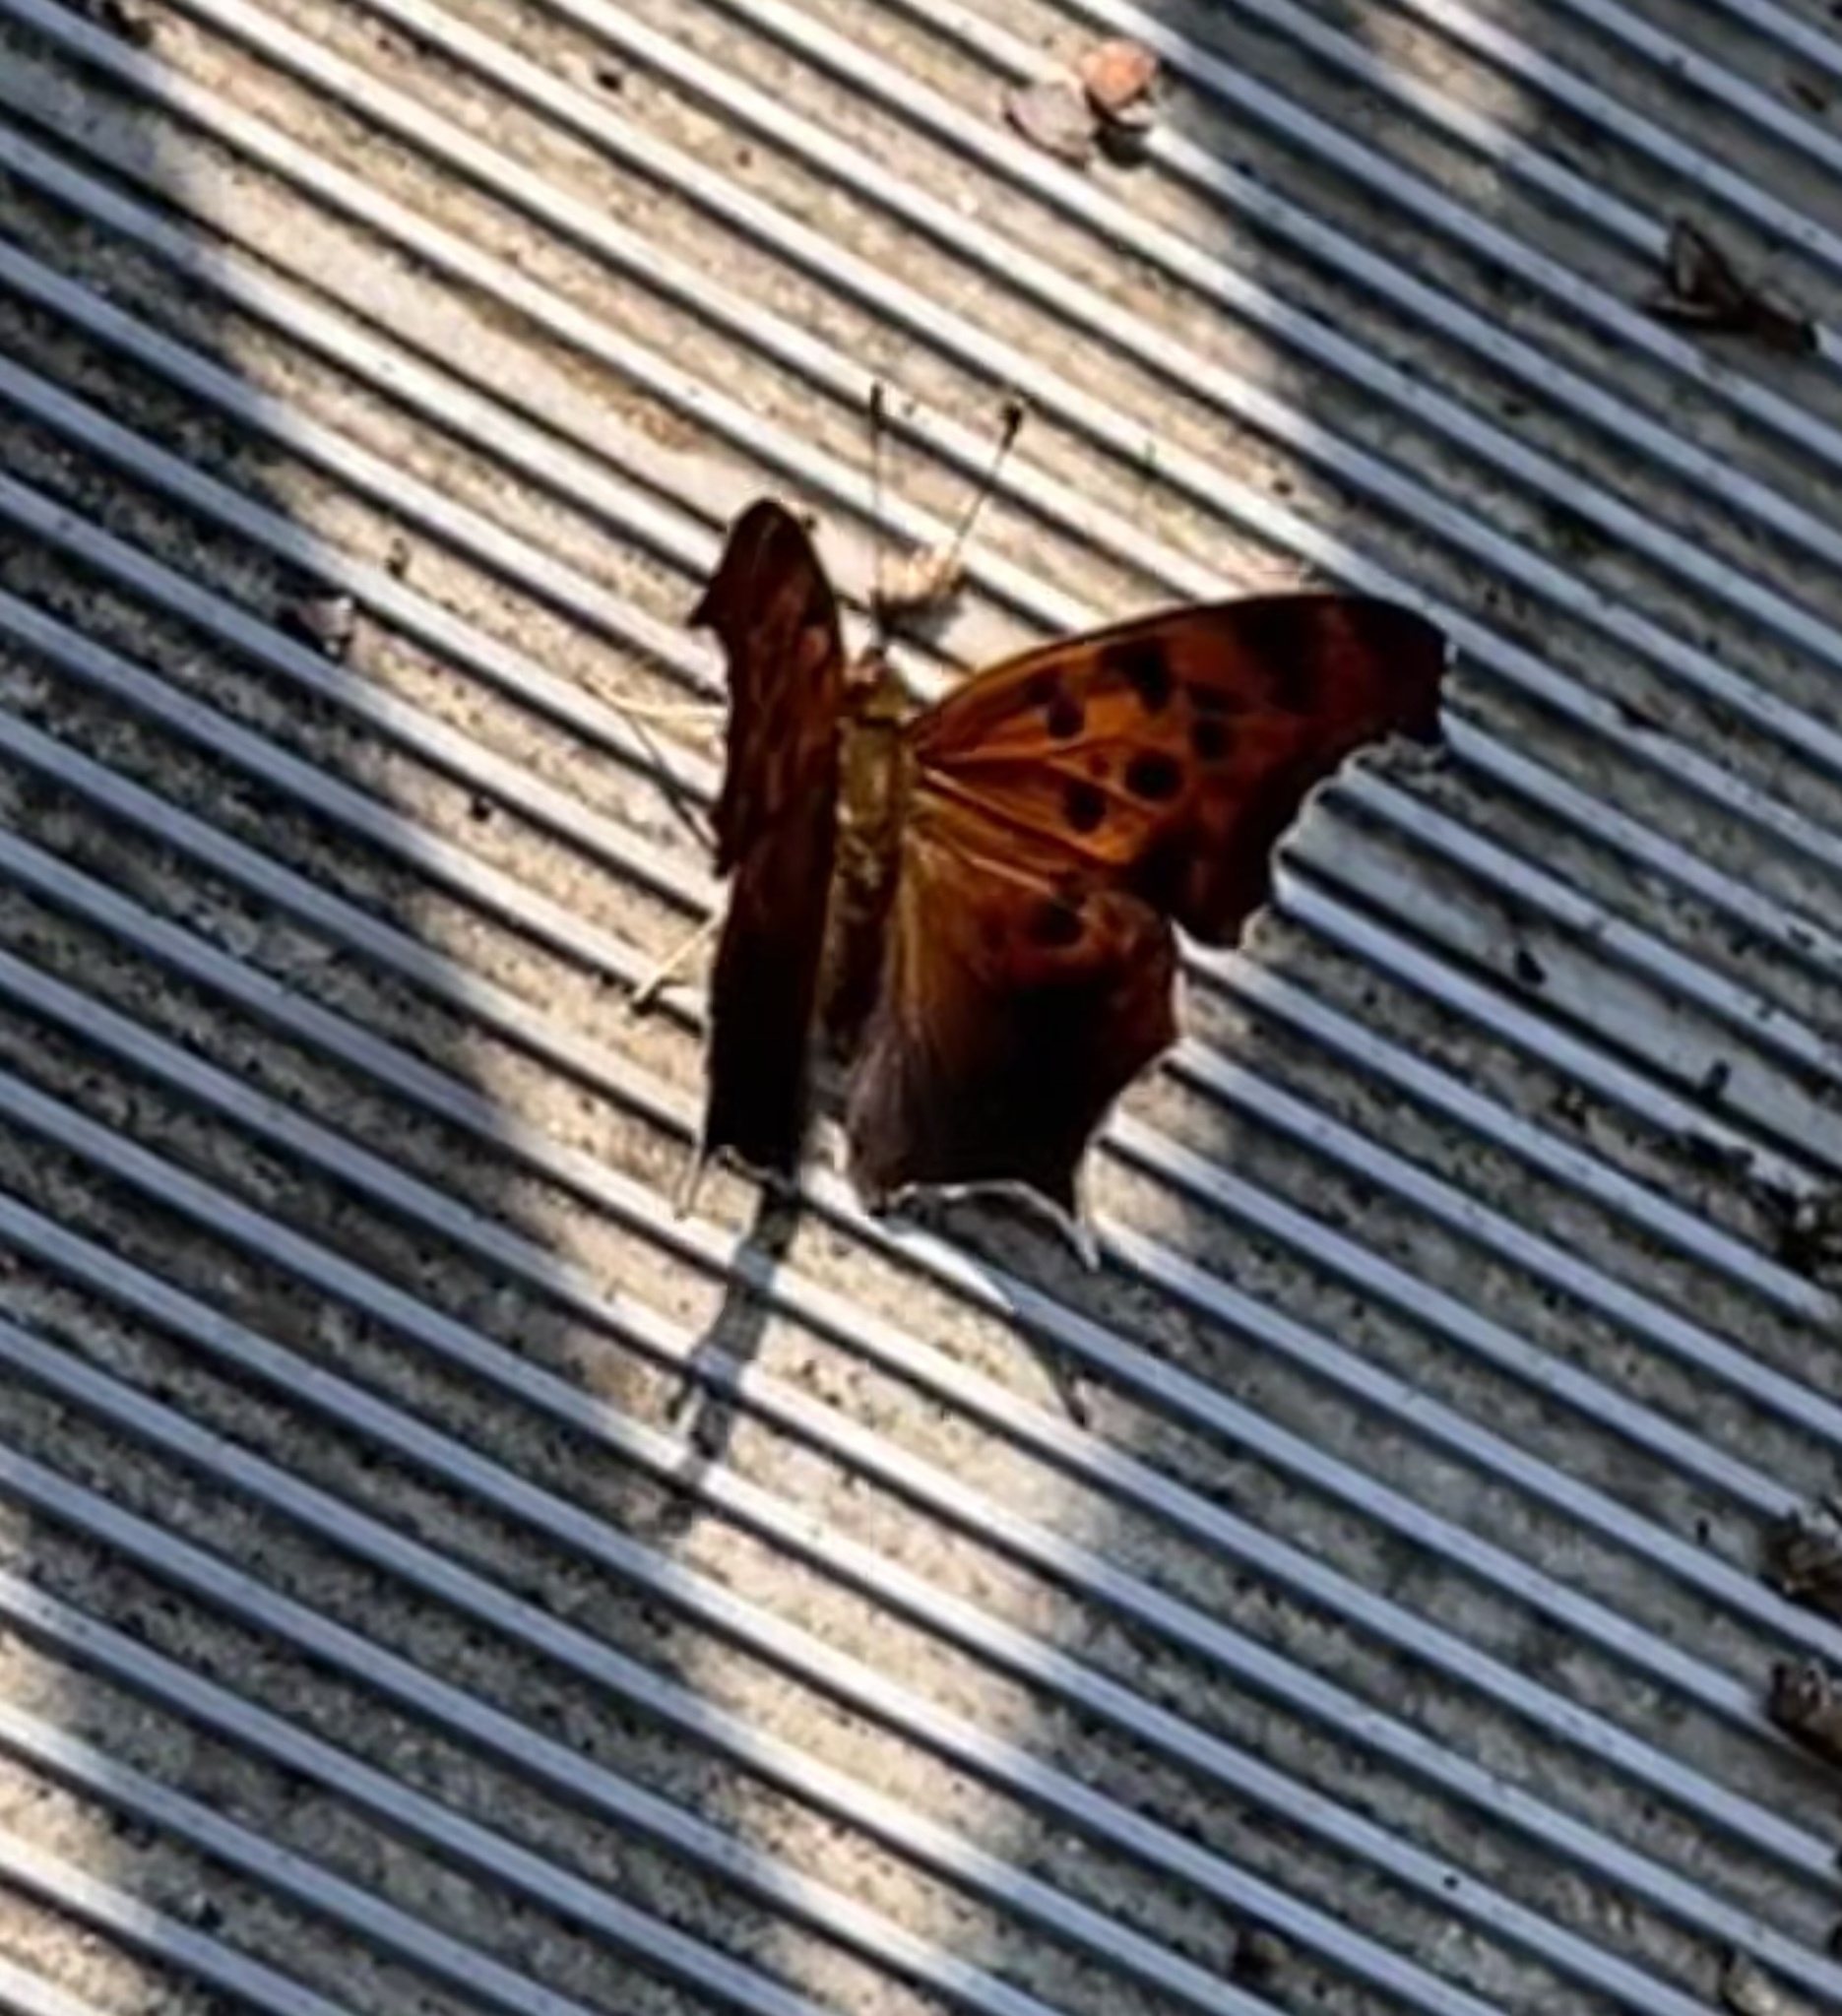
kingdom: Animalia
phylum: Arthropoda
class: Insecta
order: Lepidoptera
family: Nymphalidae
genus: Polygonia
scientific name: Polygonia interrogationis
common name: Question mark
